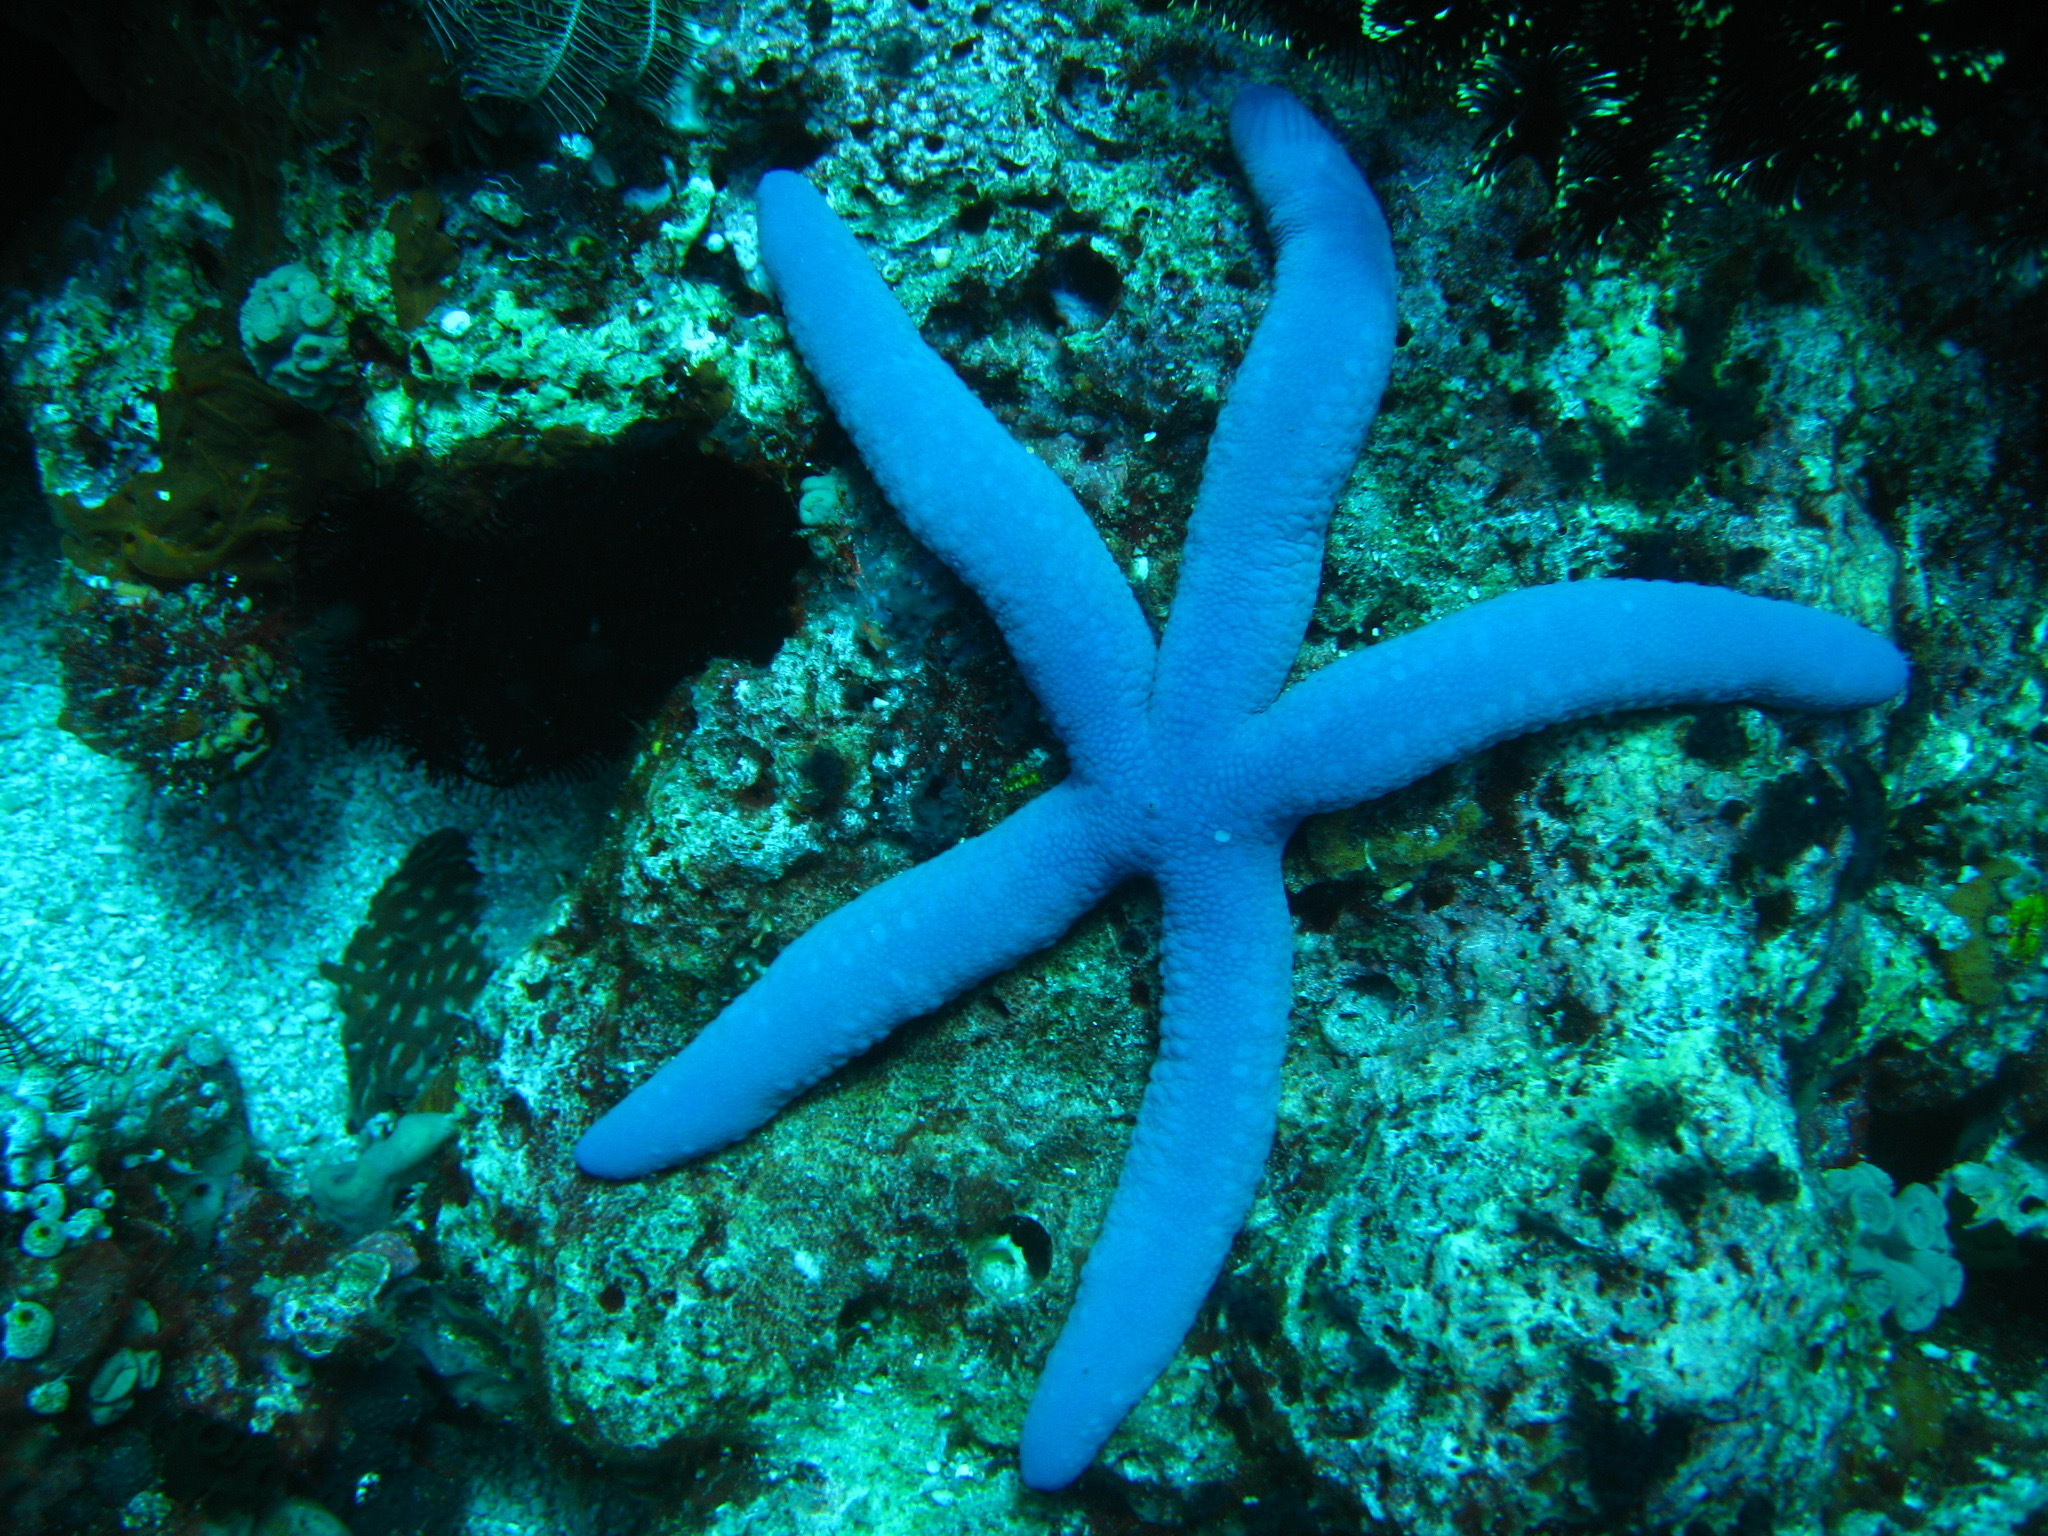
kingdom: Animalia
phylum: Echinodermata
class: Asteroidea
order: Valvatida
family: Ophidiasteridae
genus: Linckia
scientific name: Linckia laevigata
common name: Azure sea star
